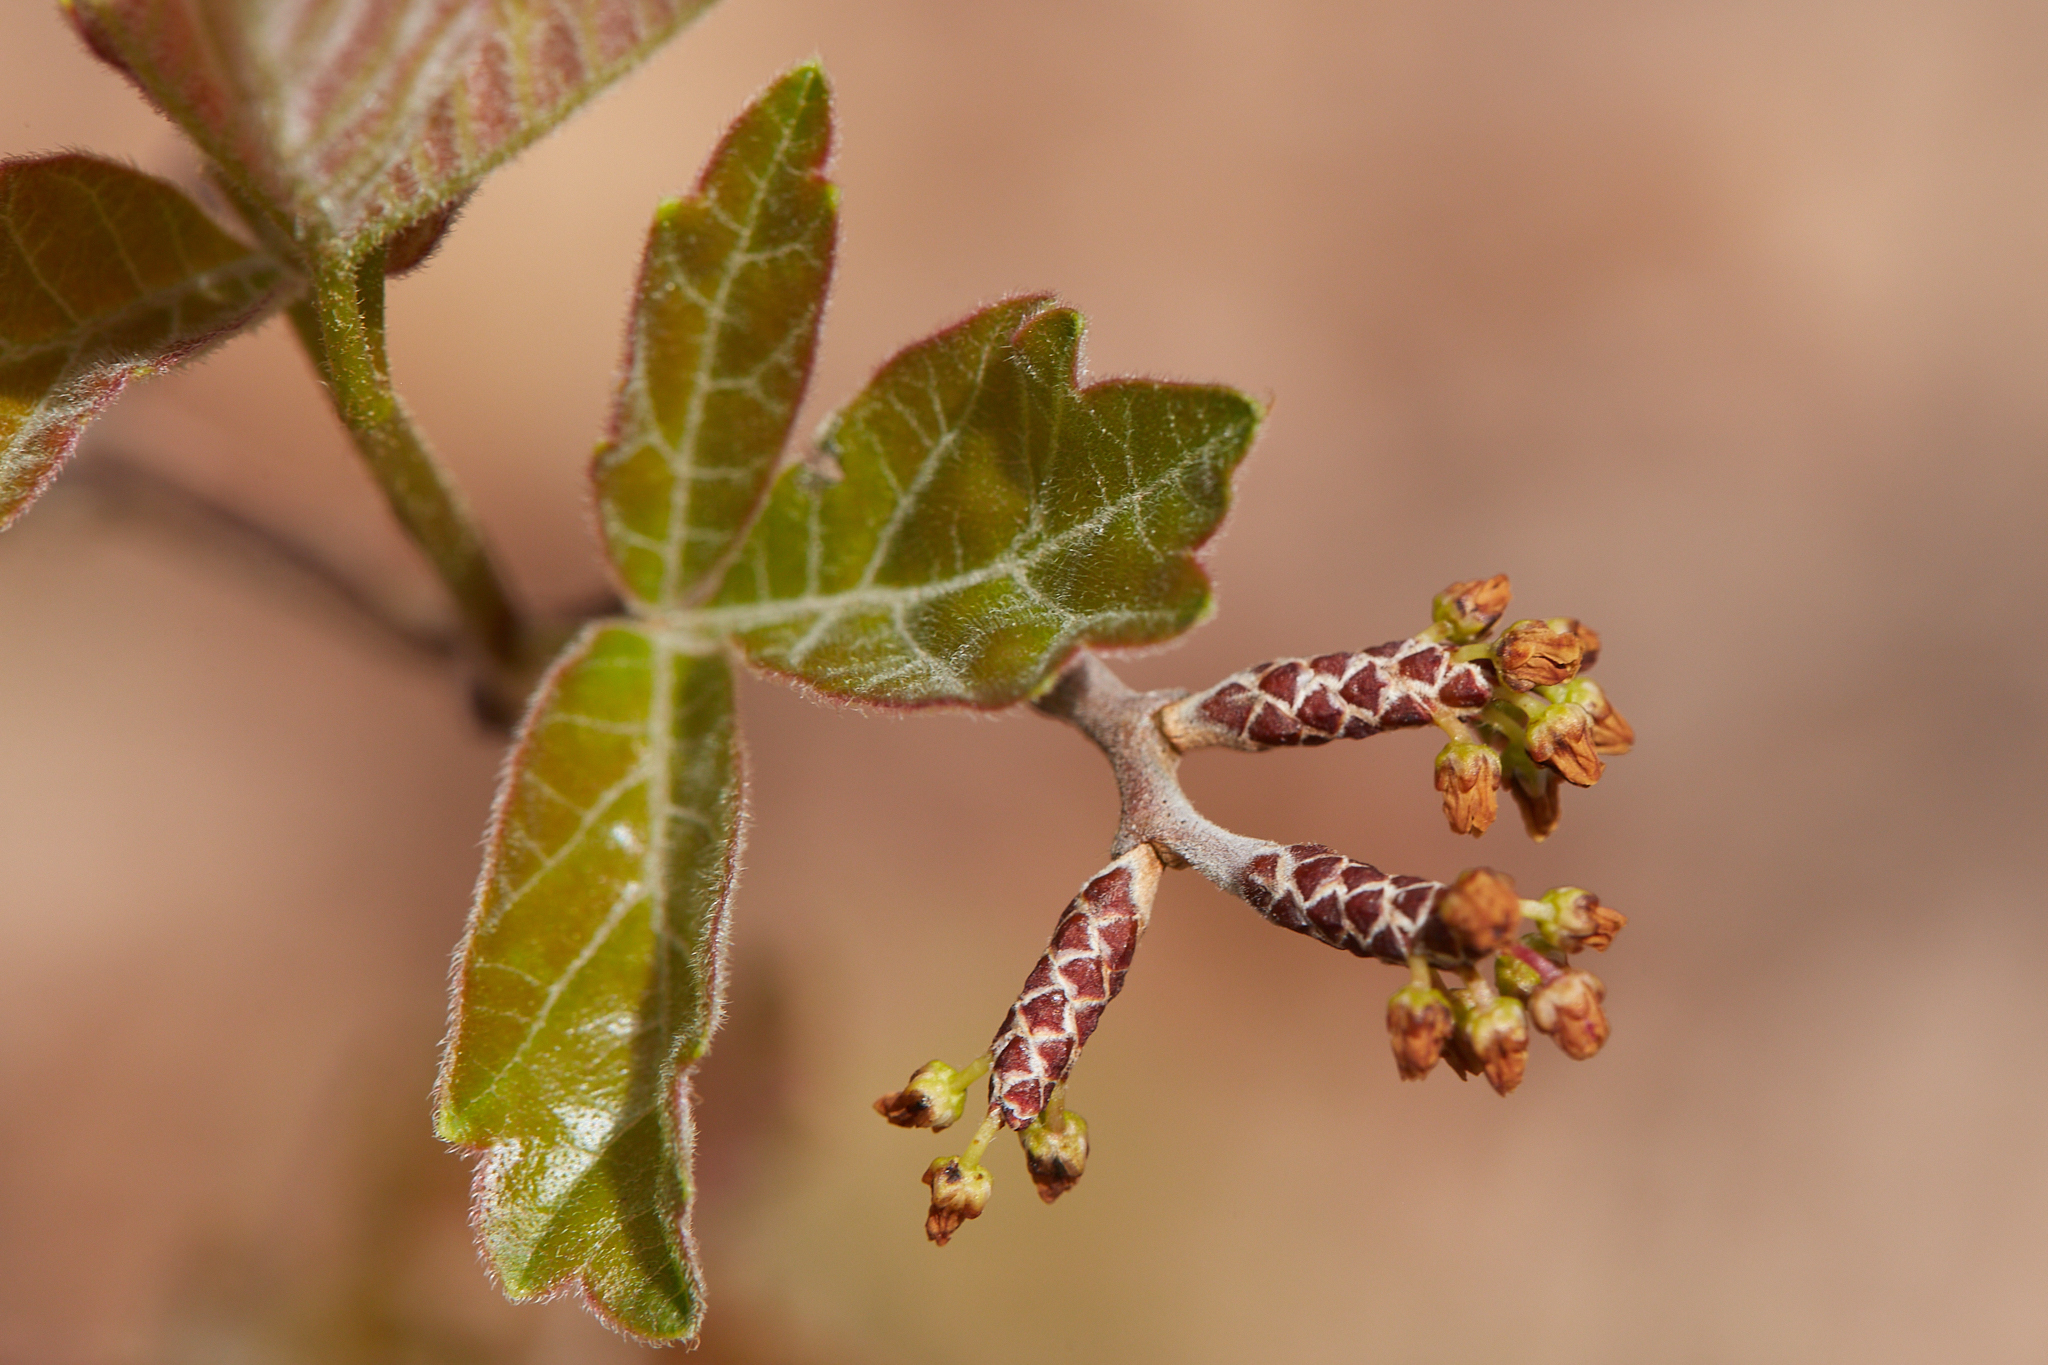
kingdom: Plantae
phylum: Tracheophyta
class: Magnoliopsida
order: Sapindales
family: Anacardiaceae
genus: Rhus
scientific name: Rhus aromatica
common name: Aromatic sumac
